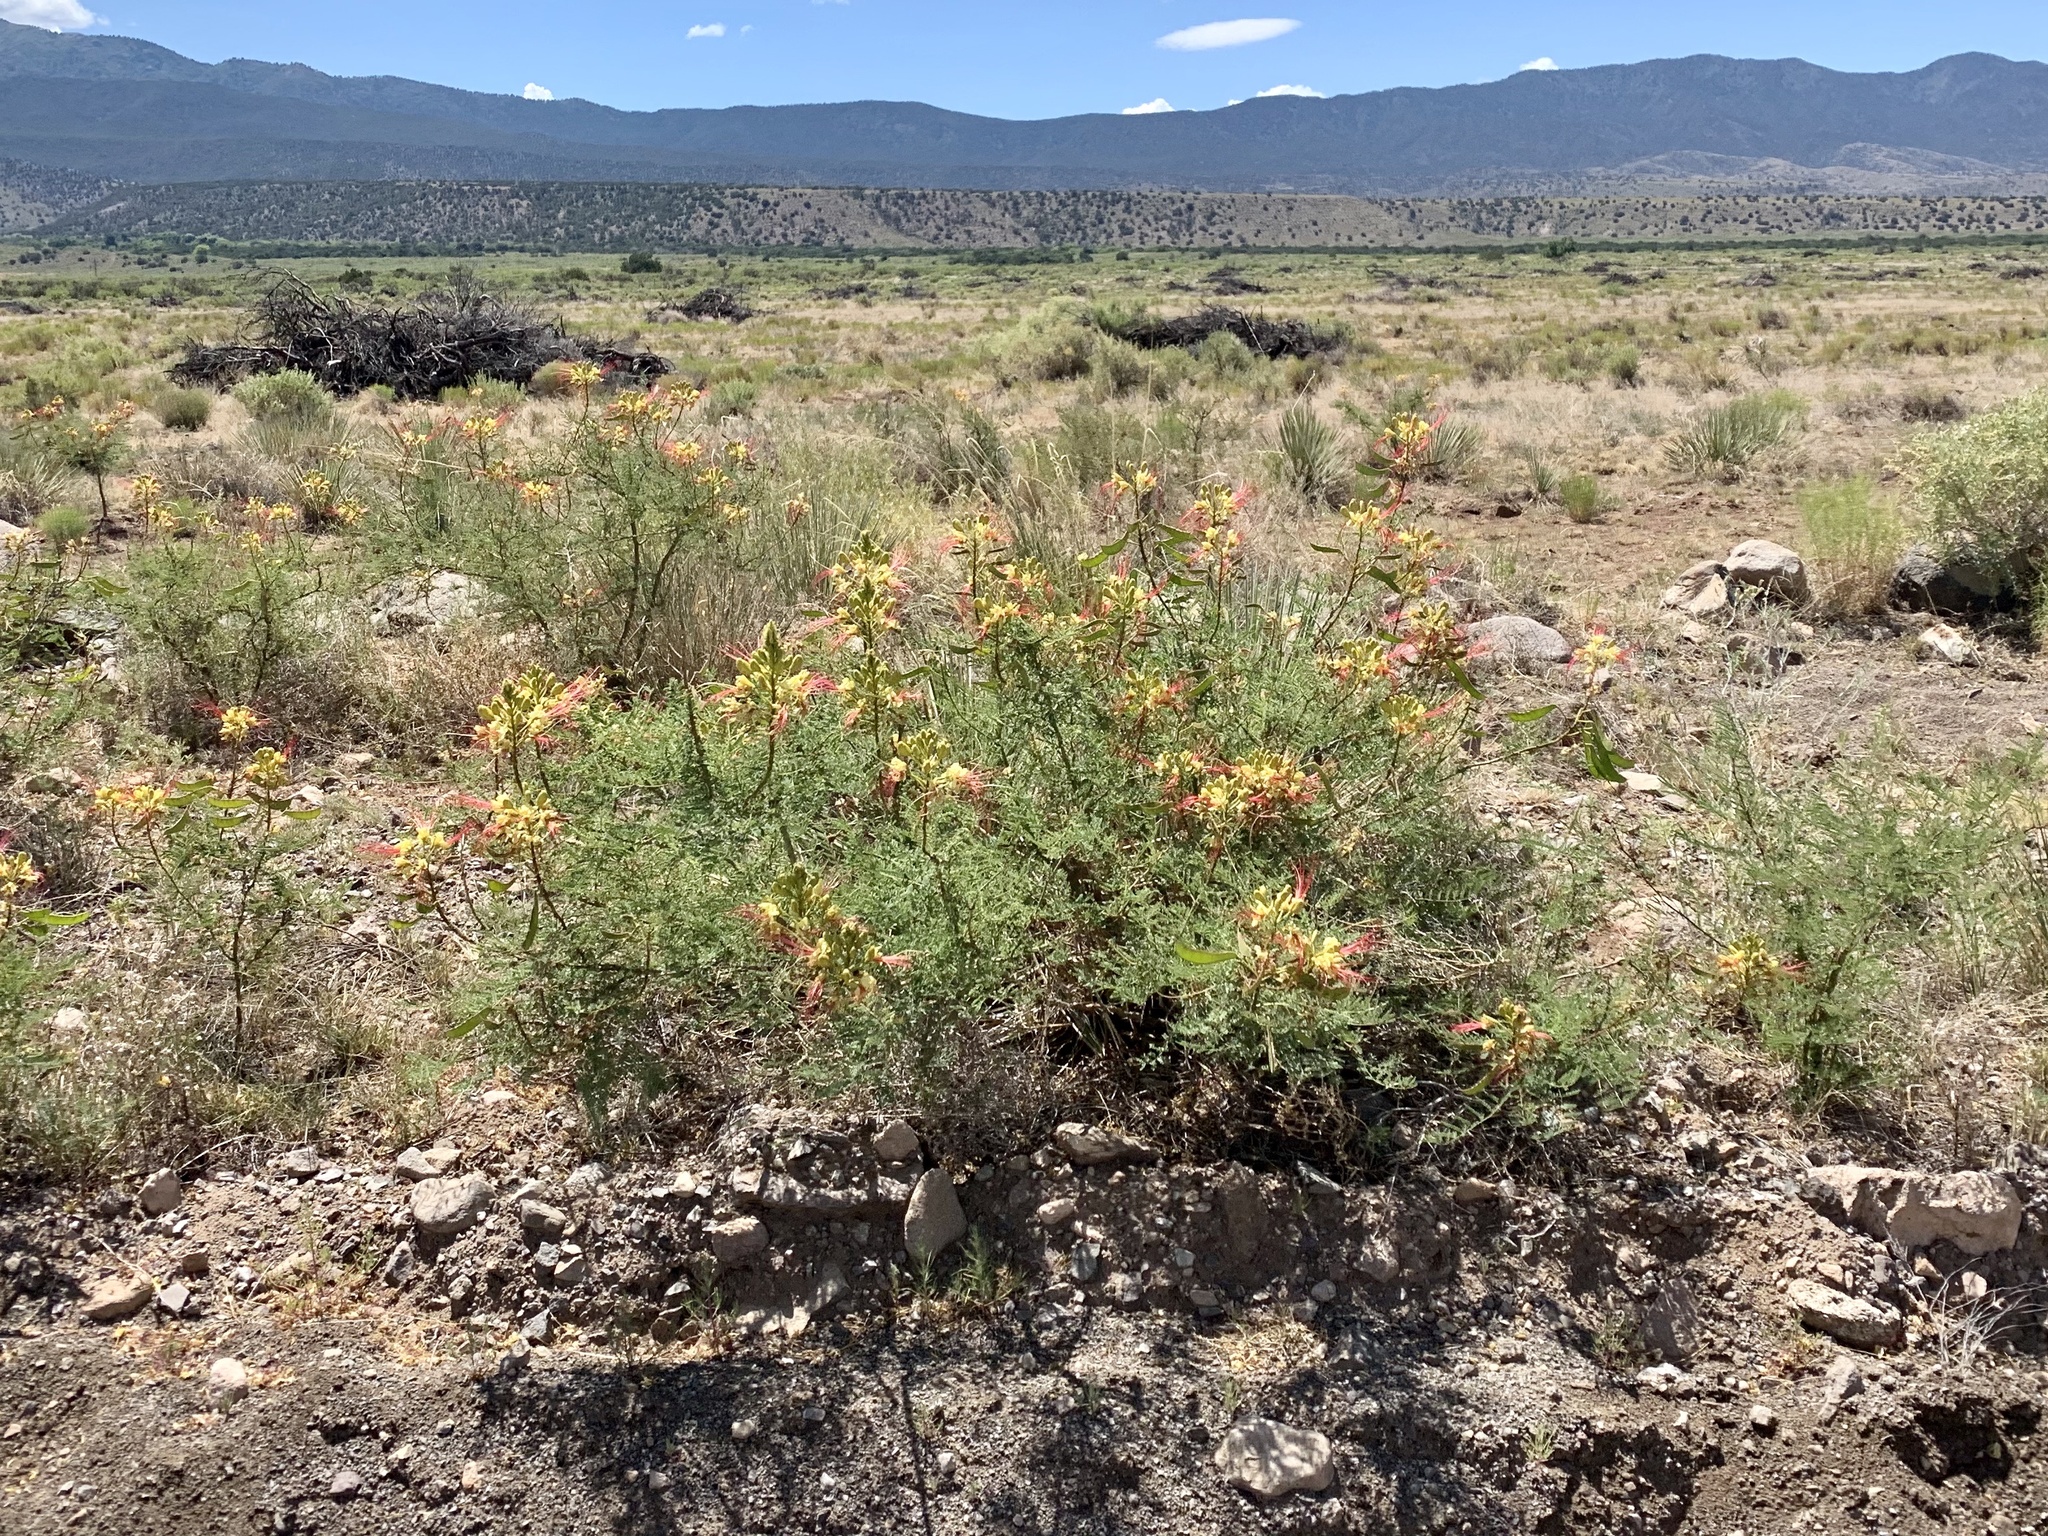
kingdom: Plantae
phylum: Tracheophyta
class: Magnoliopsida
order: Fabales
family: Fabaceae
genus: Erythrostemon
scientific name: Erythrostemon gilliesii
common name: Bird-of-paradise shrub
